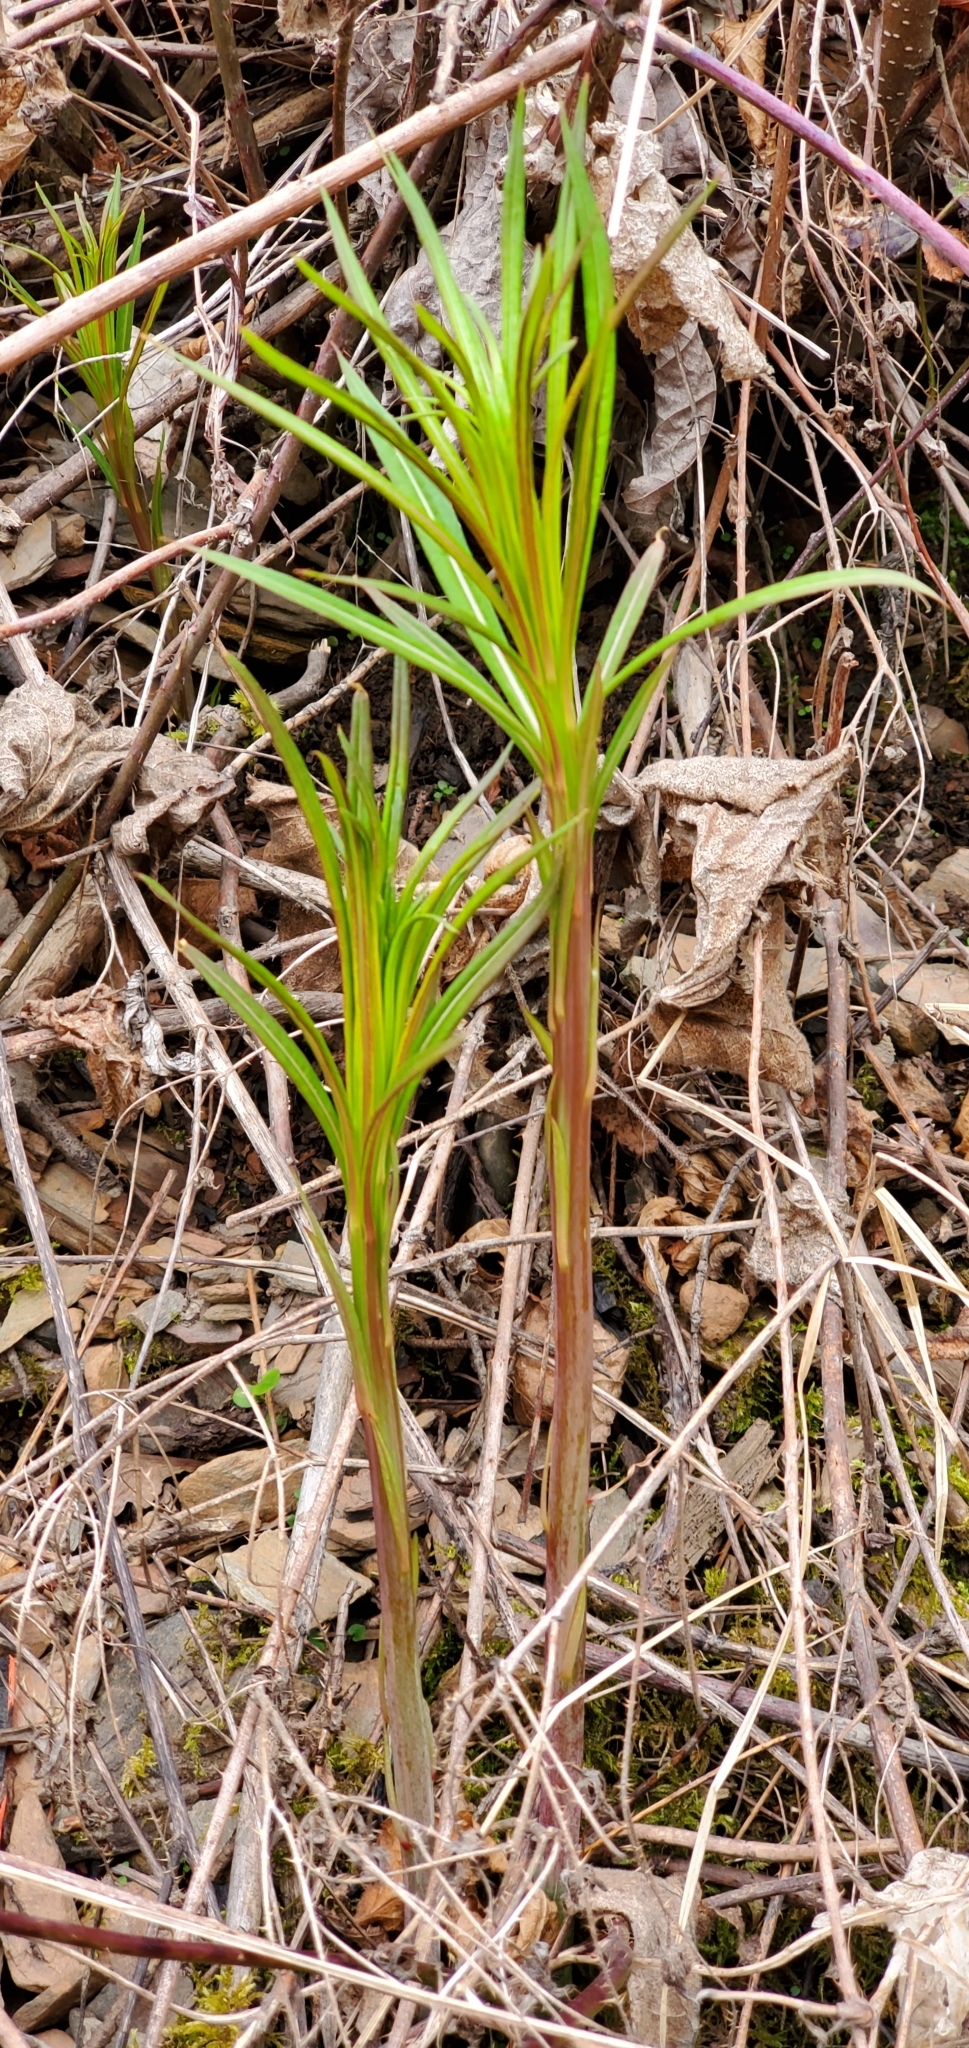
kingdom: Plantae
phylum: Tracheophyta
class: Magnoliopsida
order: Myrtales
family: Onagraceae
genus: Chamaenerion
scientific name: Chamaenerion angustifolium
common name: Fireweed
